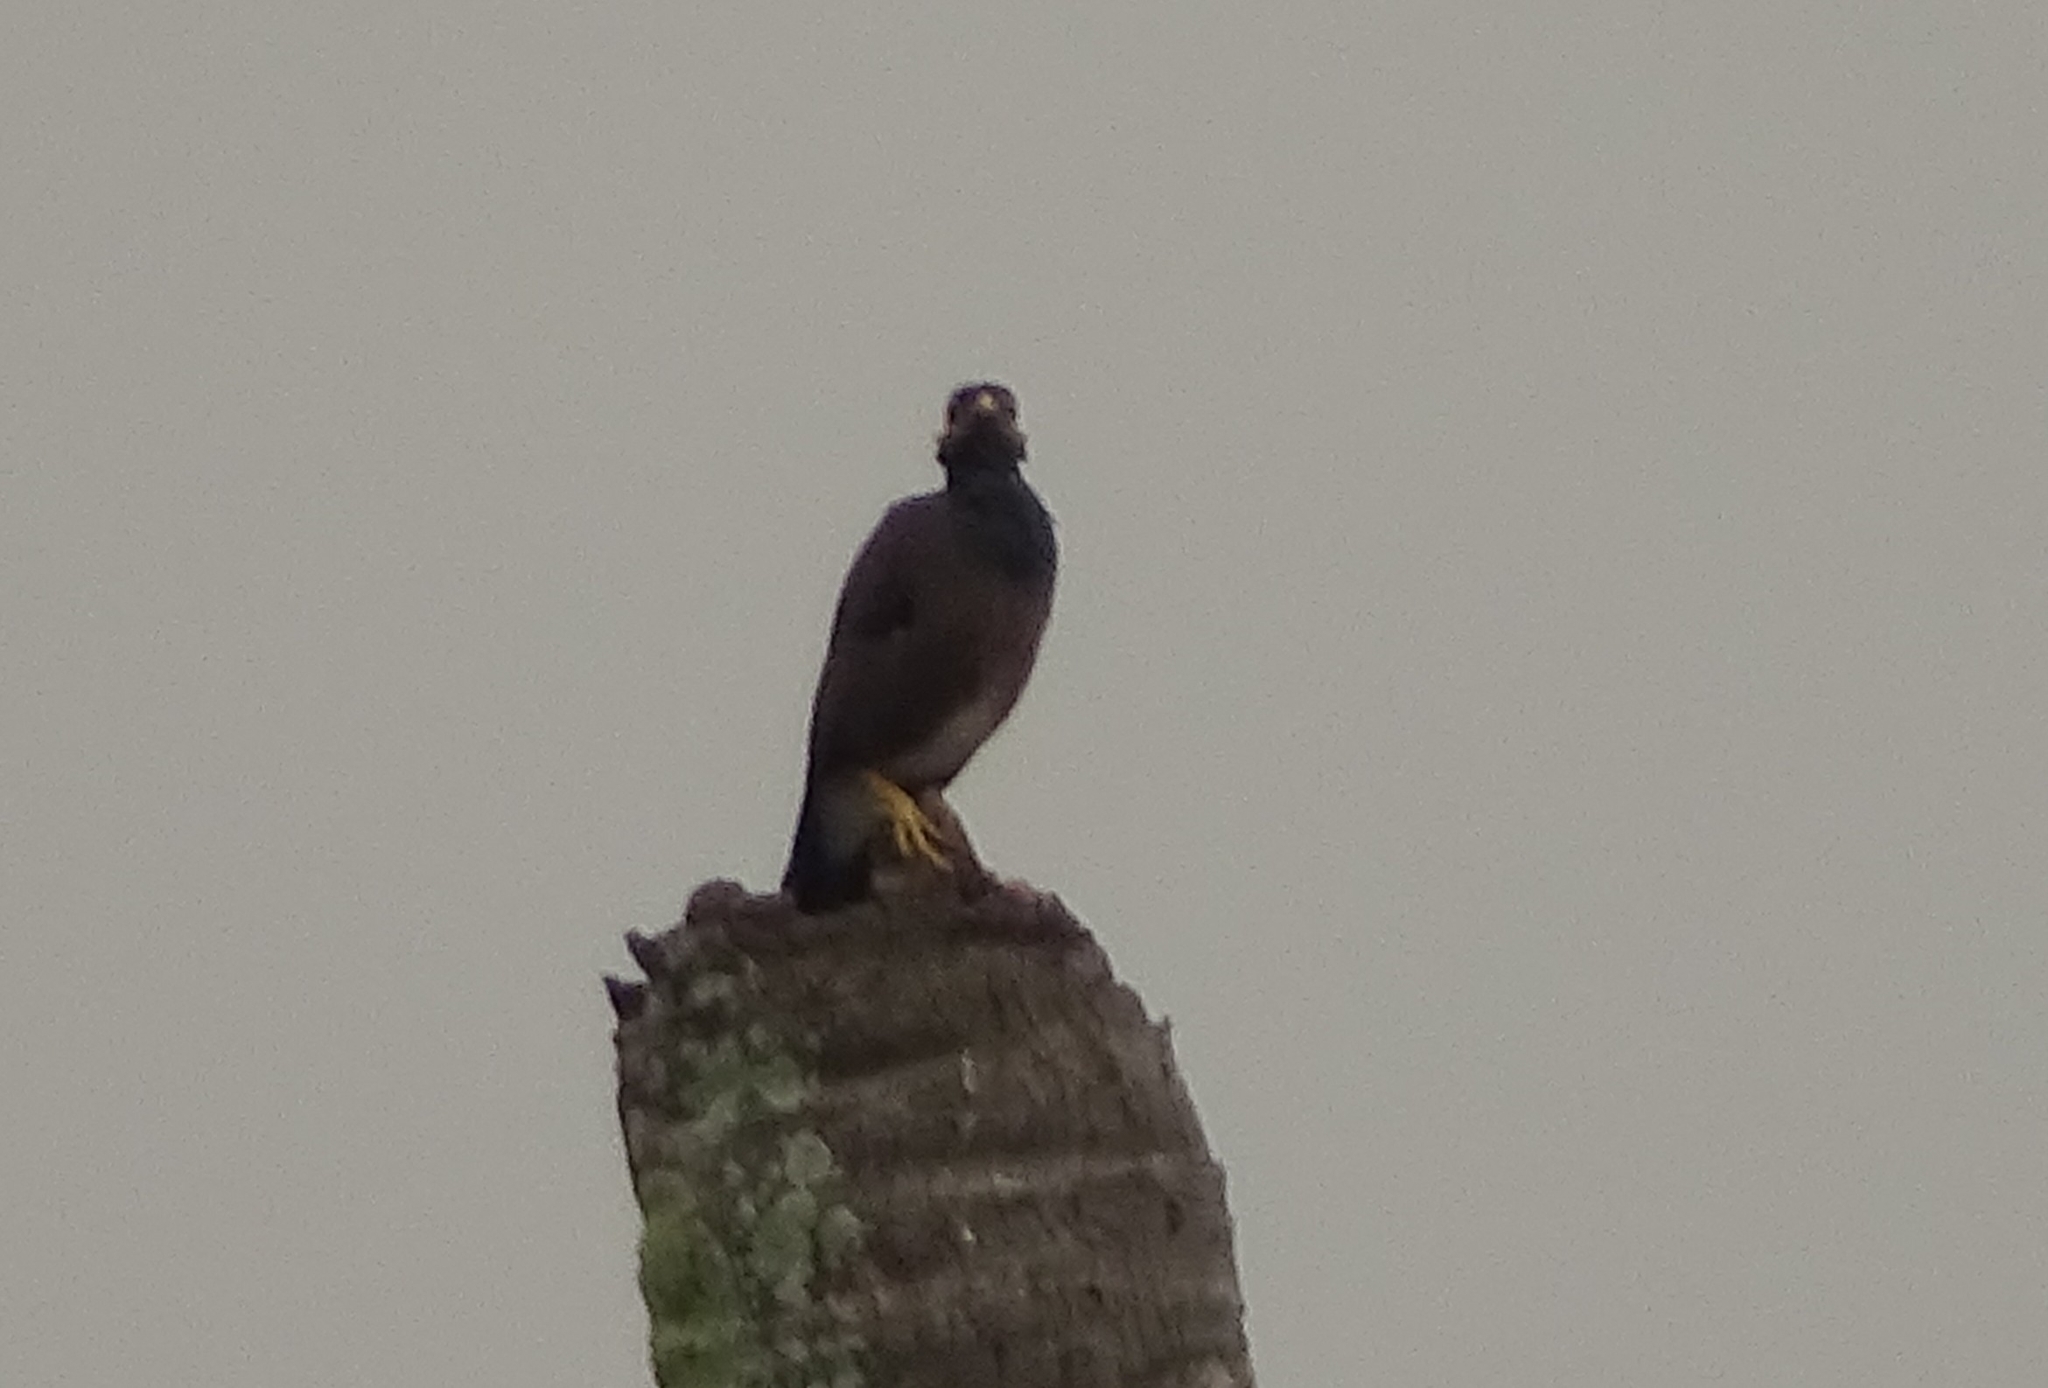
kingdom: Animalia
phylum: Chordata
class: Aves
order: Passeriformes
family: Sturnidae
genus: Acridotheres
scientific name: Acridotheres tristis
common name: Common myna
